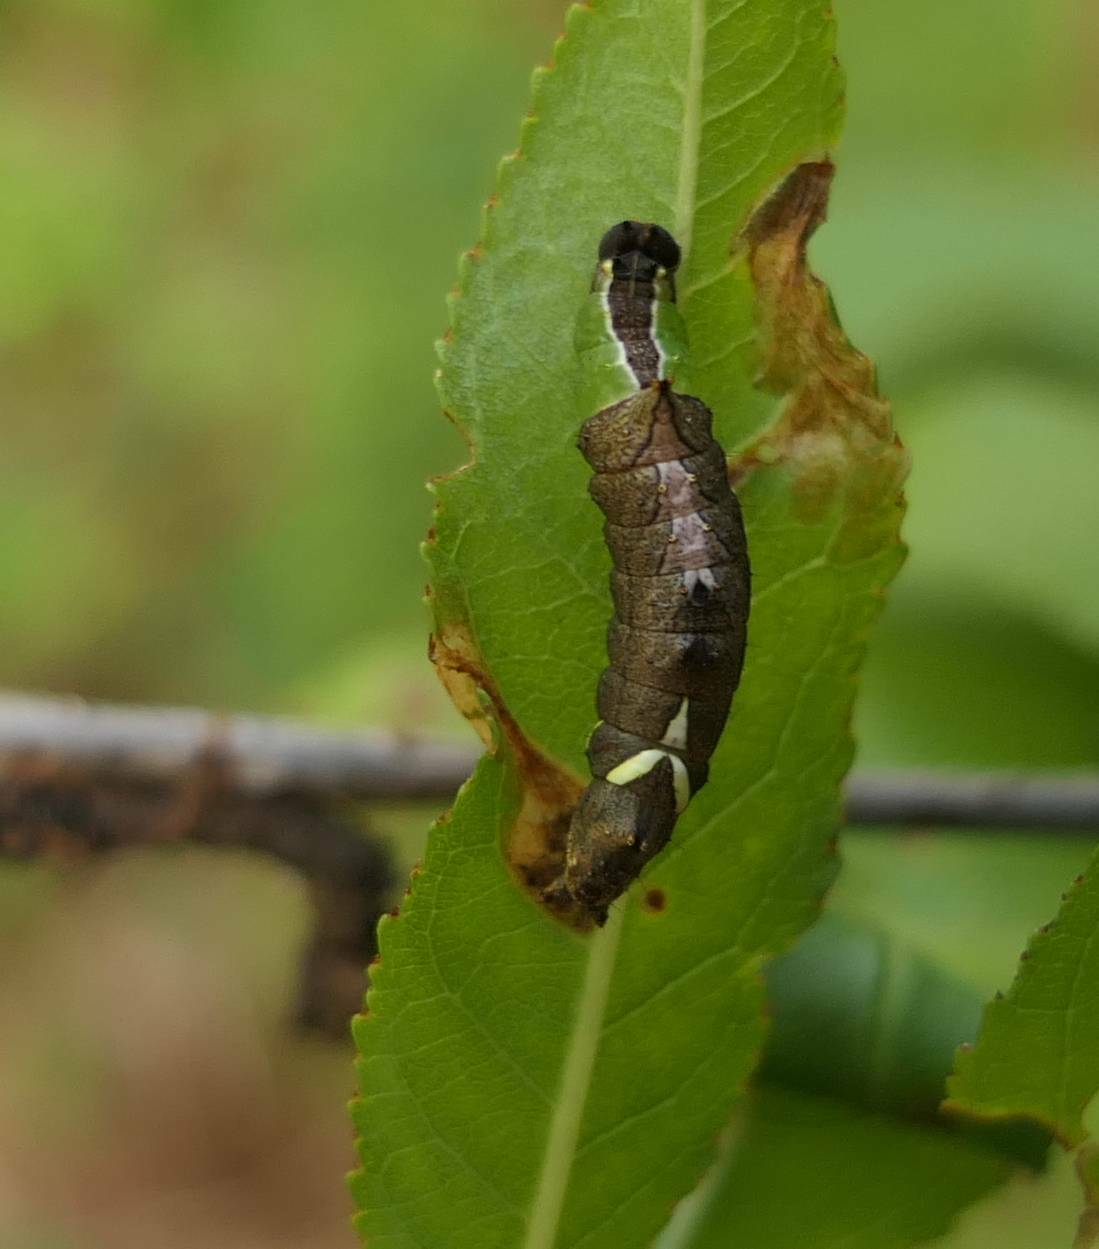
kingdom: Animalia
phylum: Arthropoda
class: Insecta
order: Lepidoptera
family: Notodontidae
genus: Schizura
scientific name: Schizura
